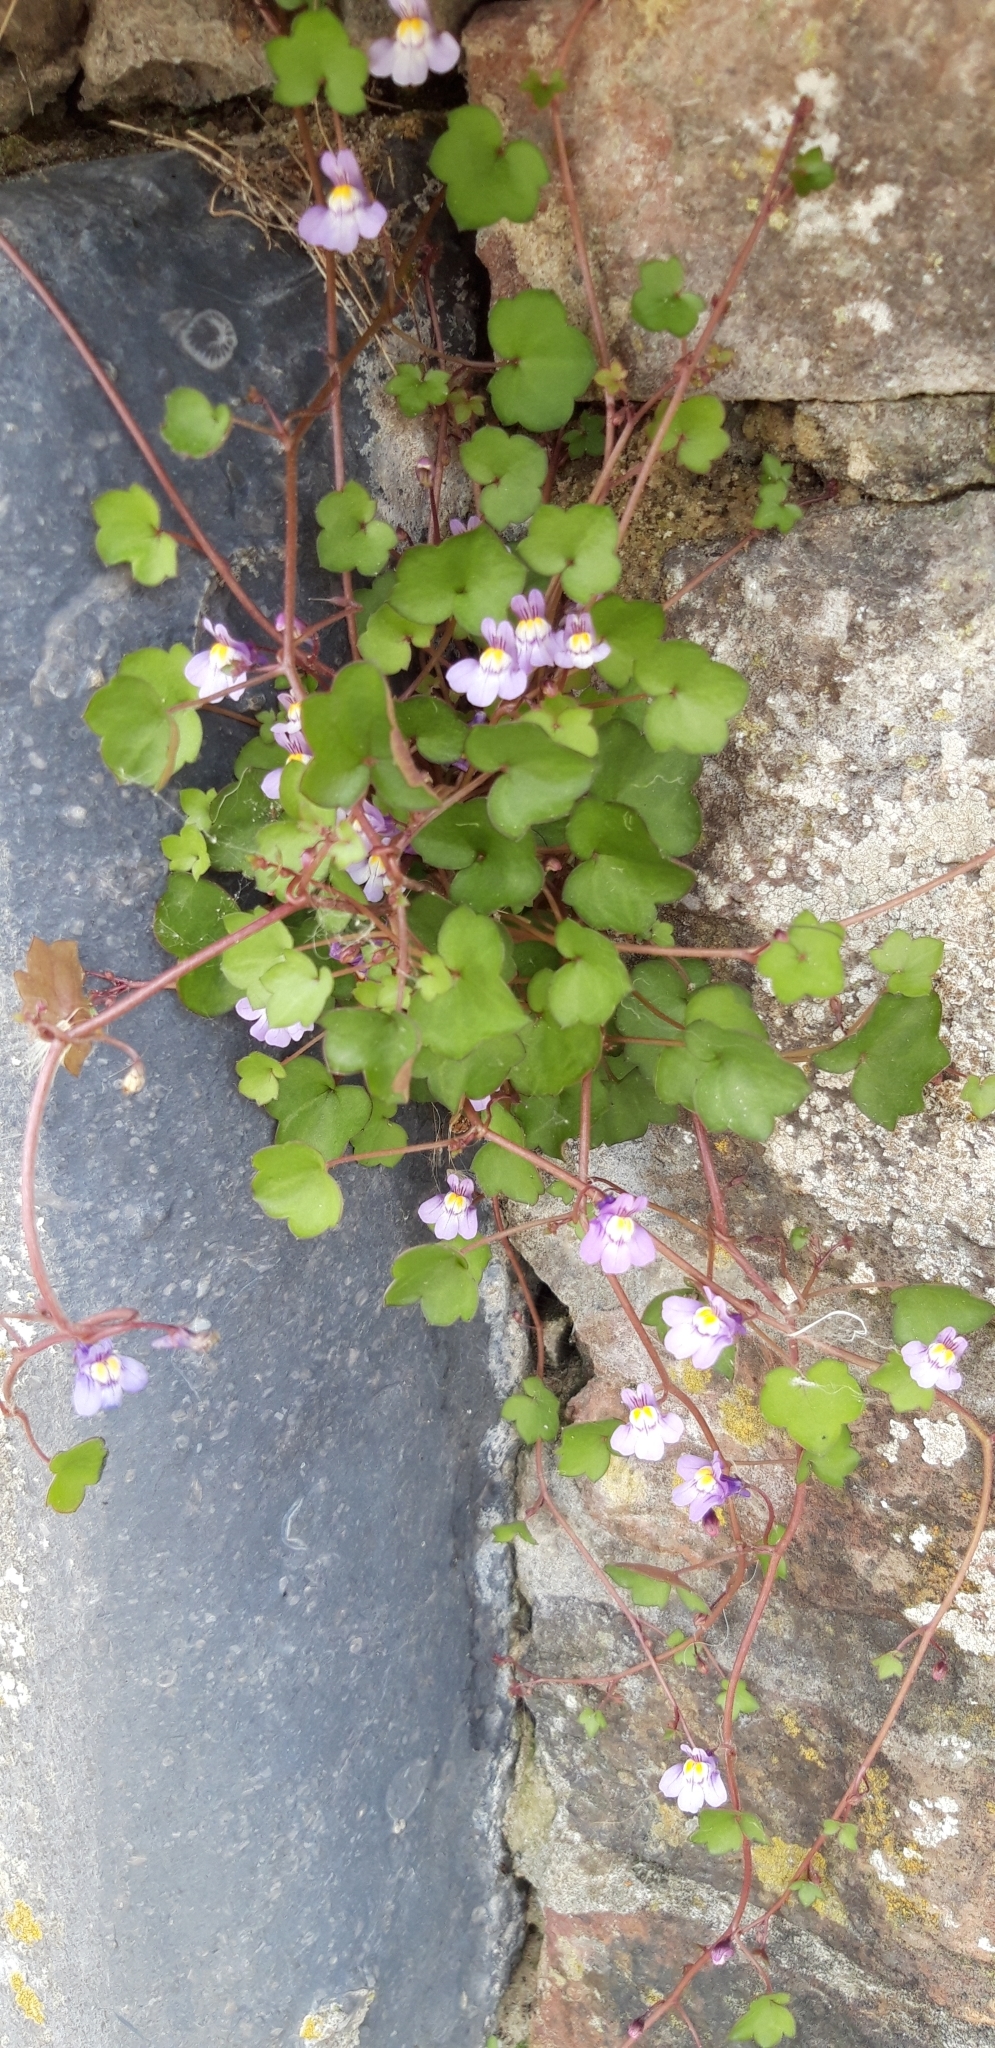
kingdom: Plantae
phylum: Tracheophyta
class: Magnoliopsida
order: Lamiales
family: Plantaginaceae
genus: Cymbalaria
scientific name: Cymbalaria muralis
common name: Ivy-leaved toadflax
